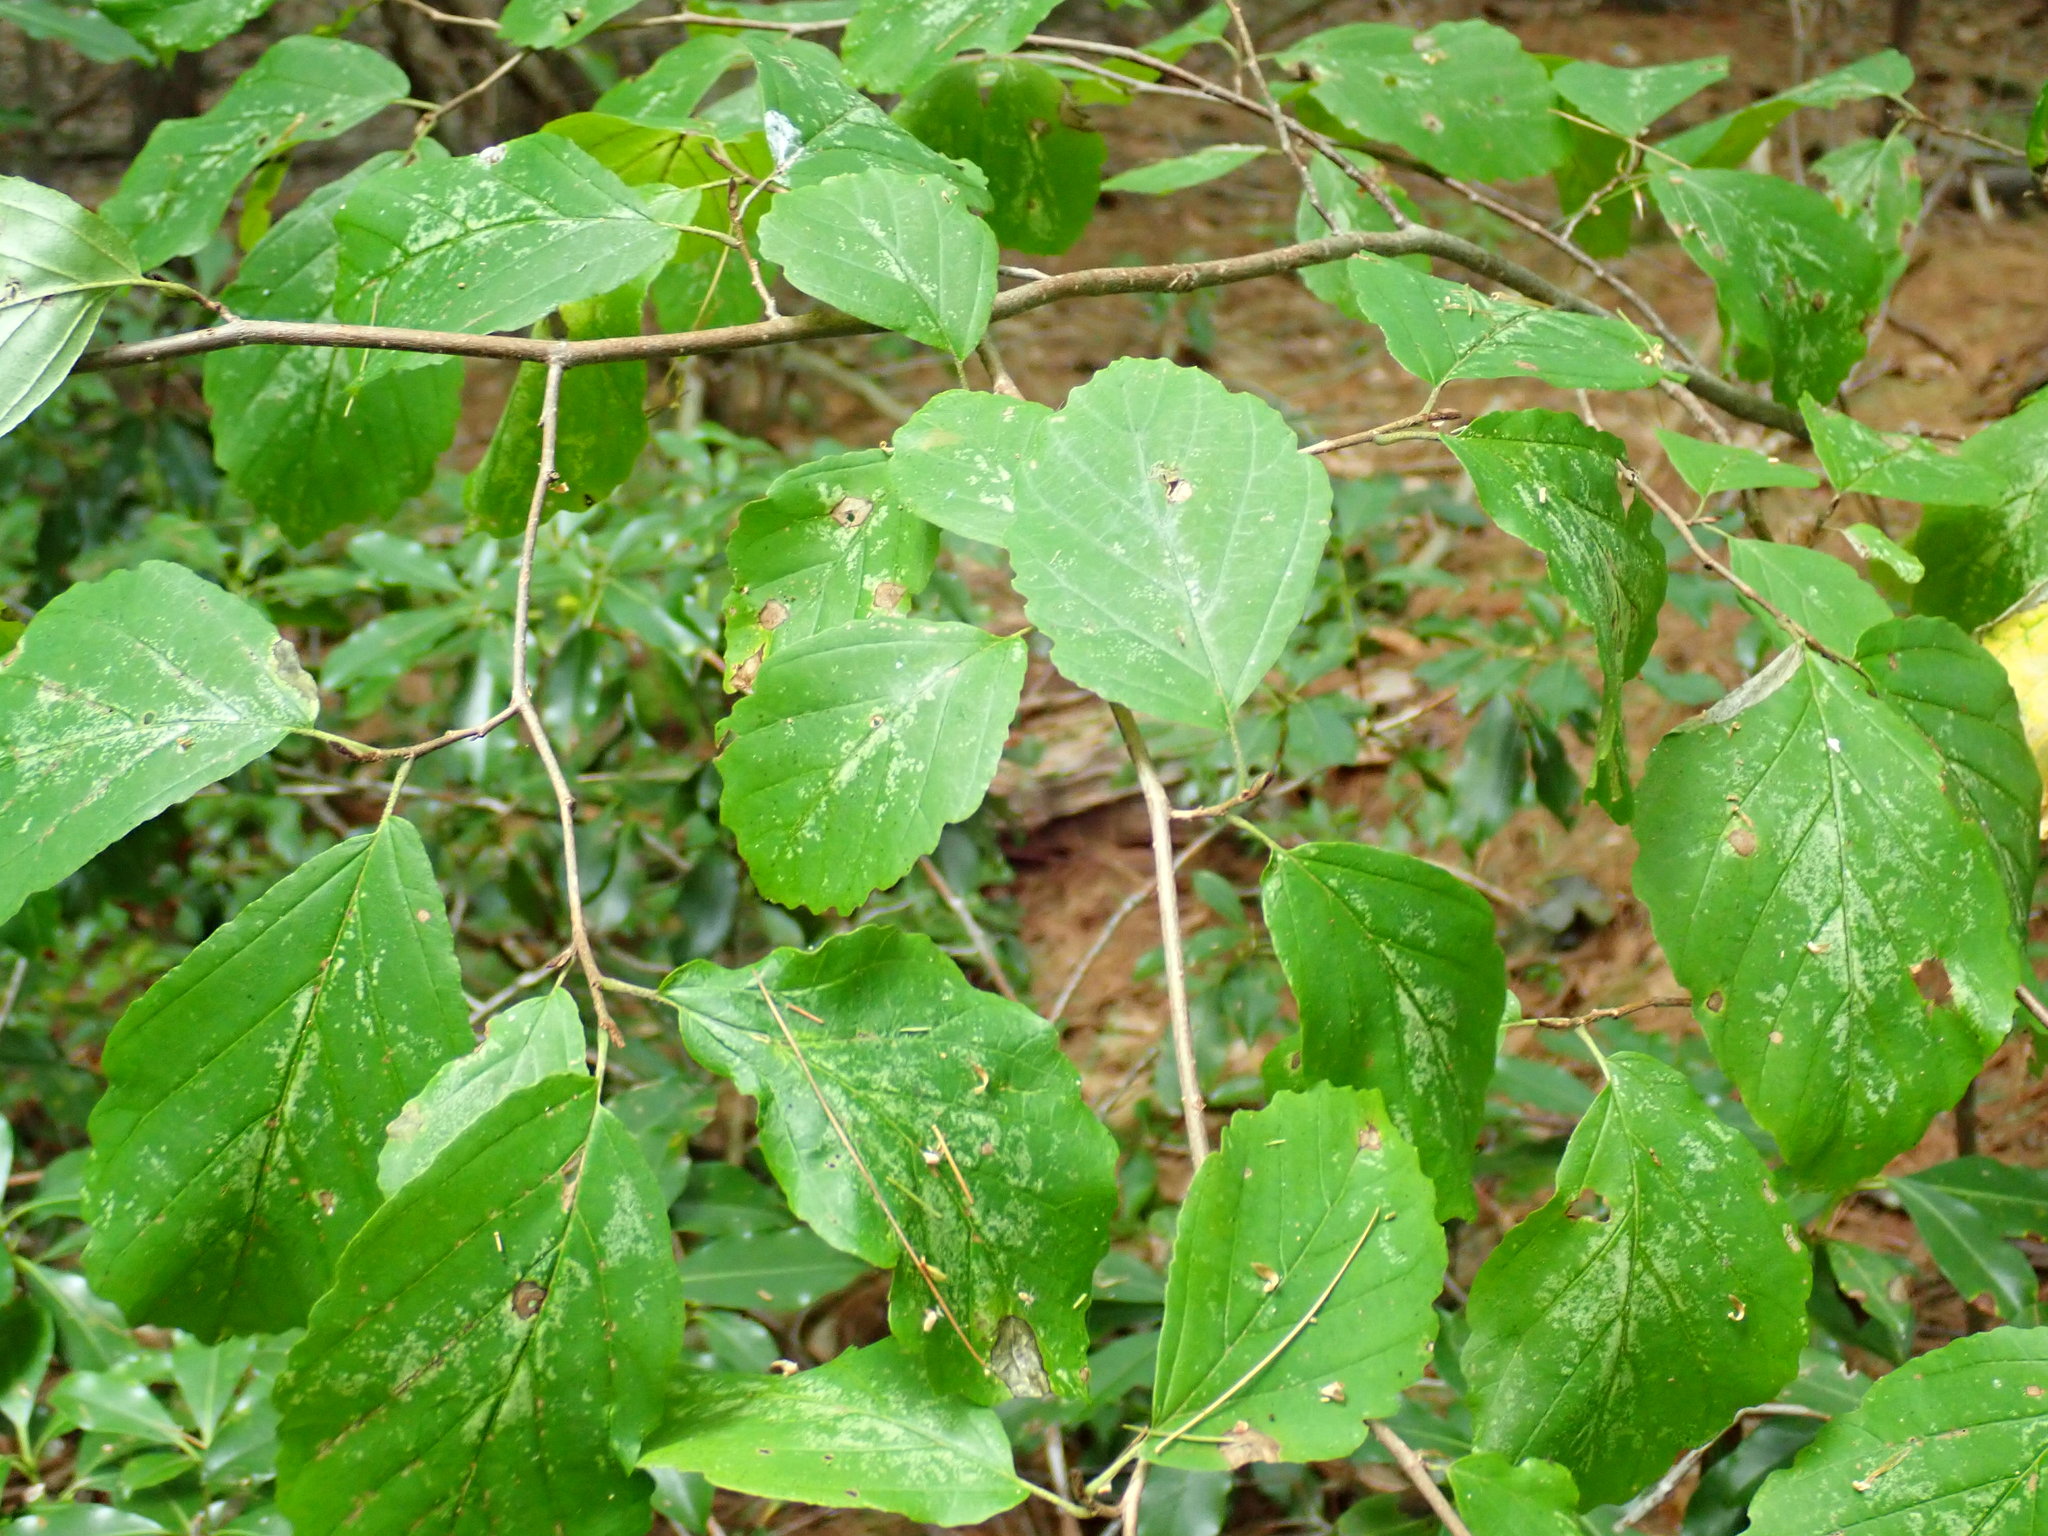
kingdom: Plantae
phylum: Tracheophyta
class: Magnoliopsida
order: Saxifragales
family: Hamamelidaceae
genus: Hamamelis
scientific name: Hamamelis virginiana
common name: Witch-hazel
